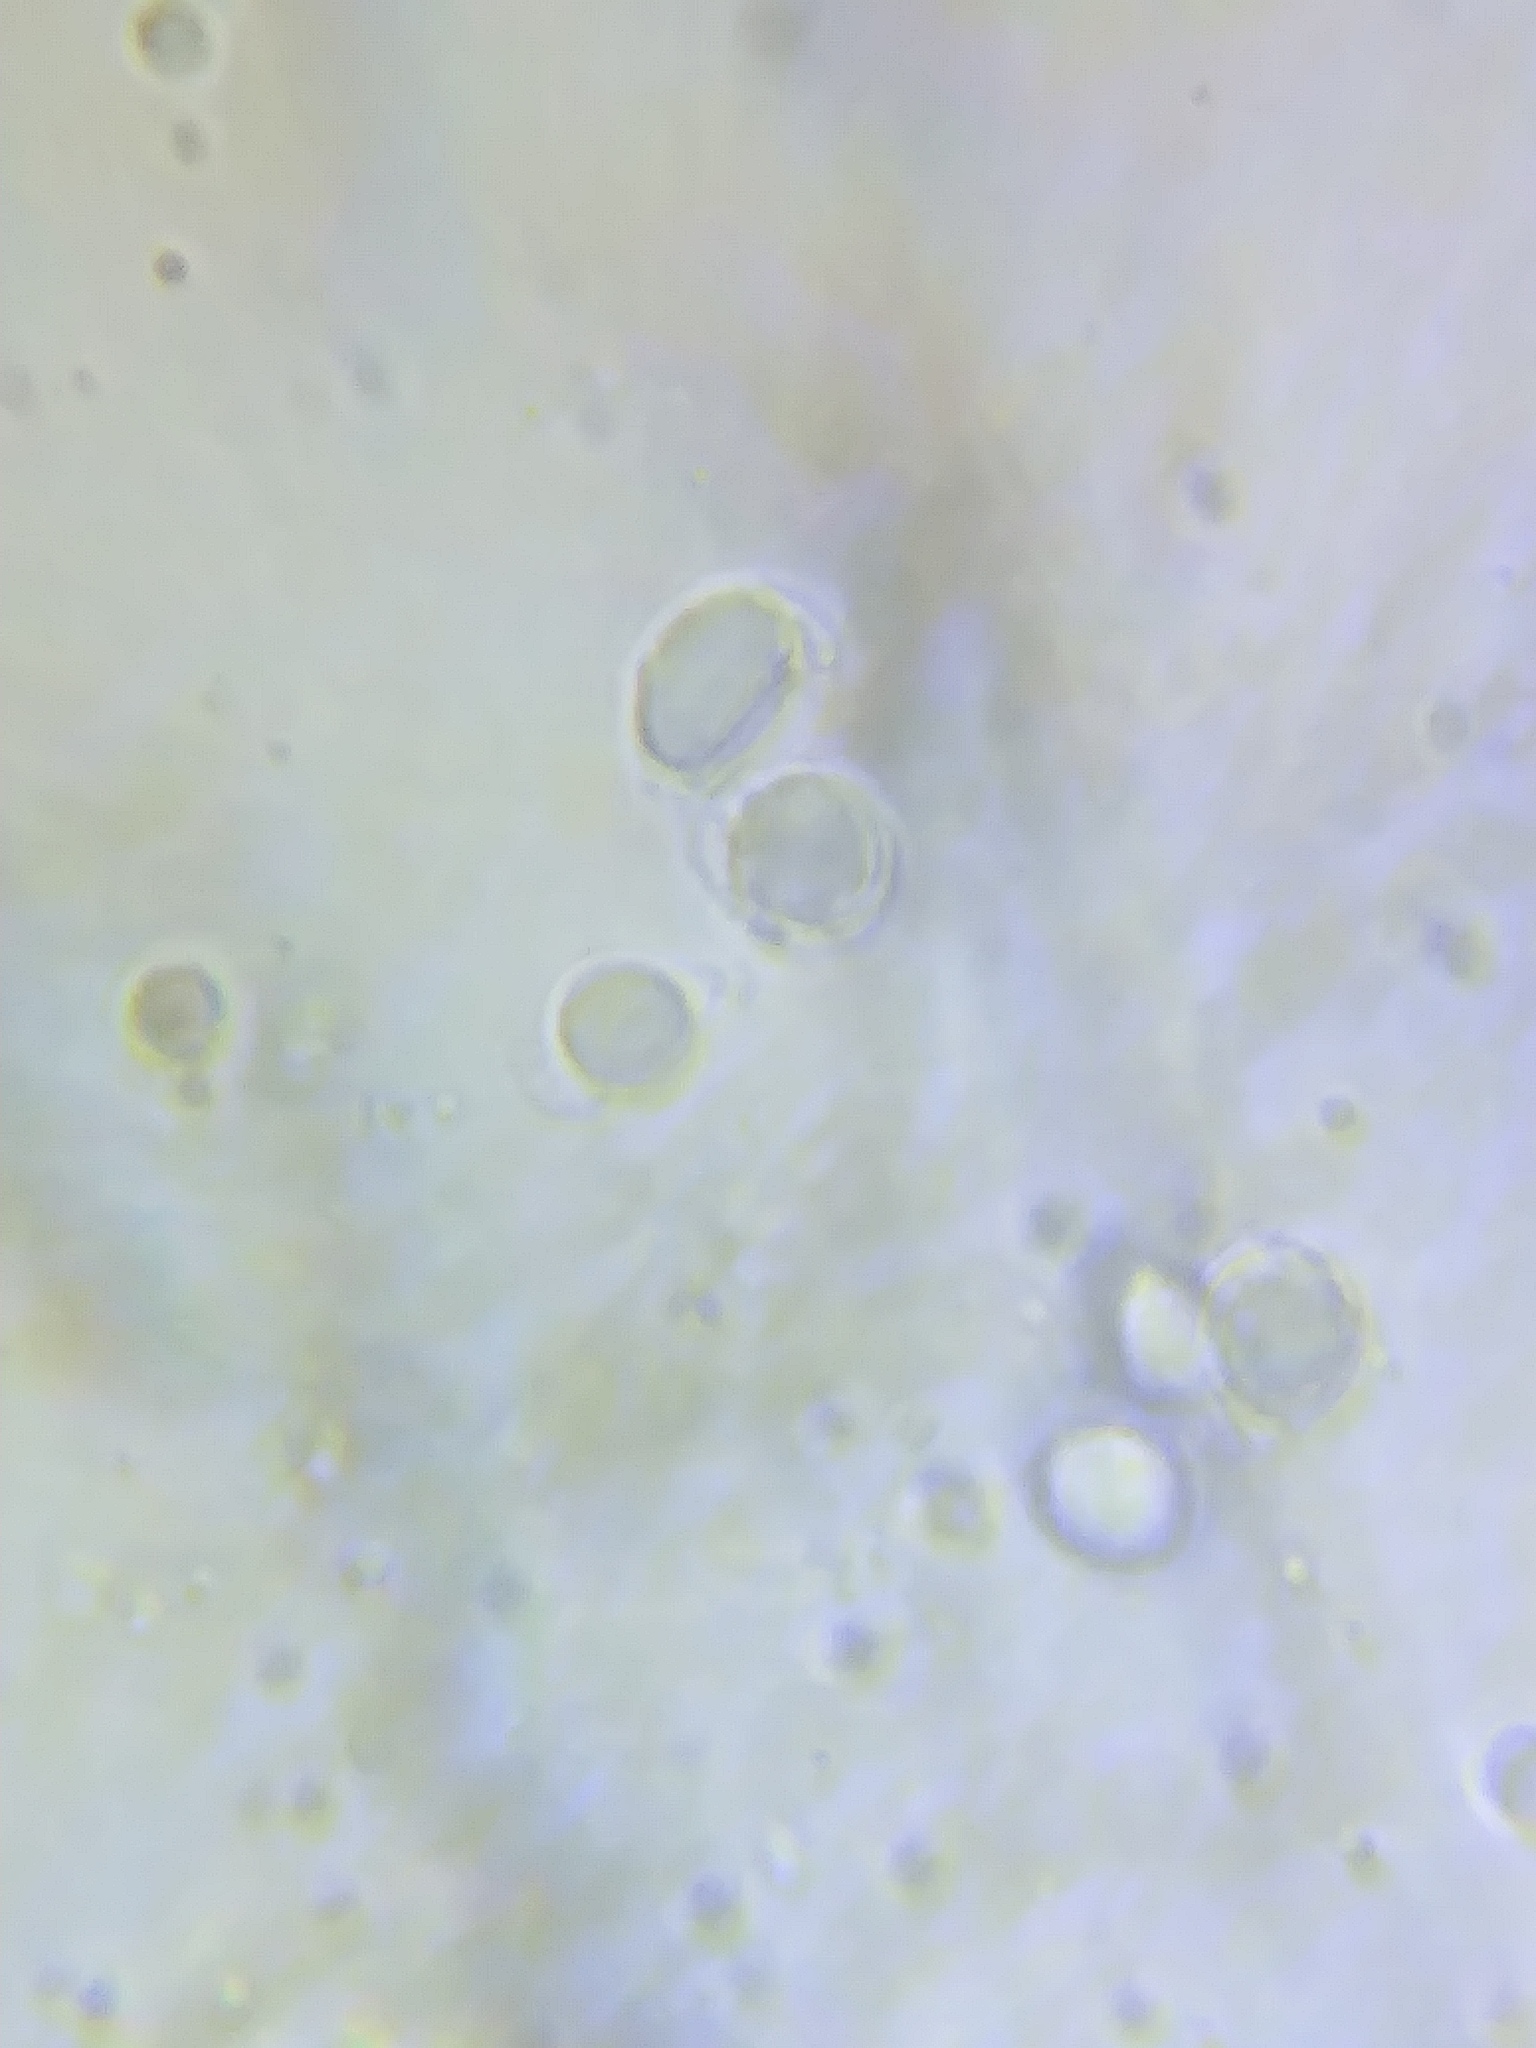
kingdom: Fungi
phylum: Basidiomycota
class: Agaricomycetes
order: Agaricales
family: Mycenaceae
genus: Mycena
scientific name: Mycena galericulata
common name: Bonnet mycena
